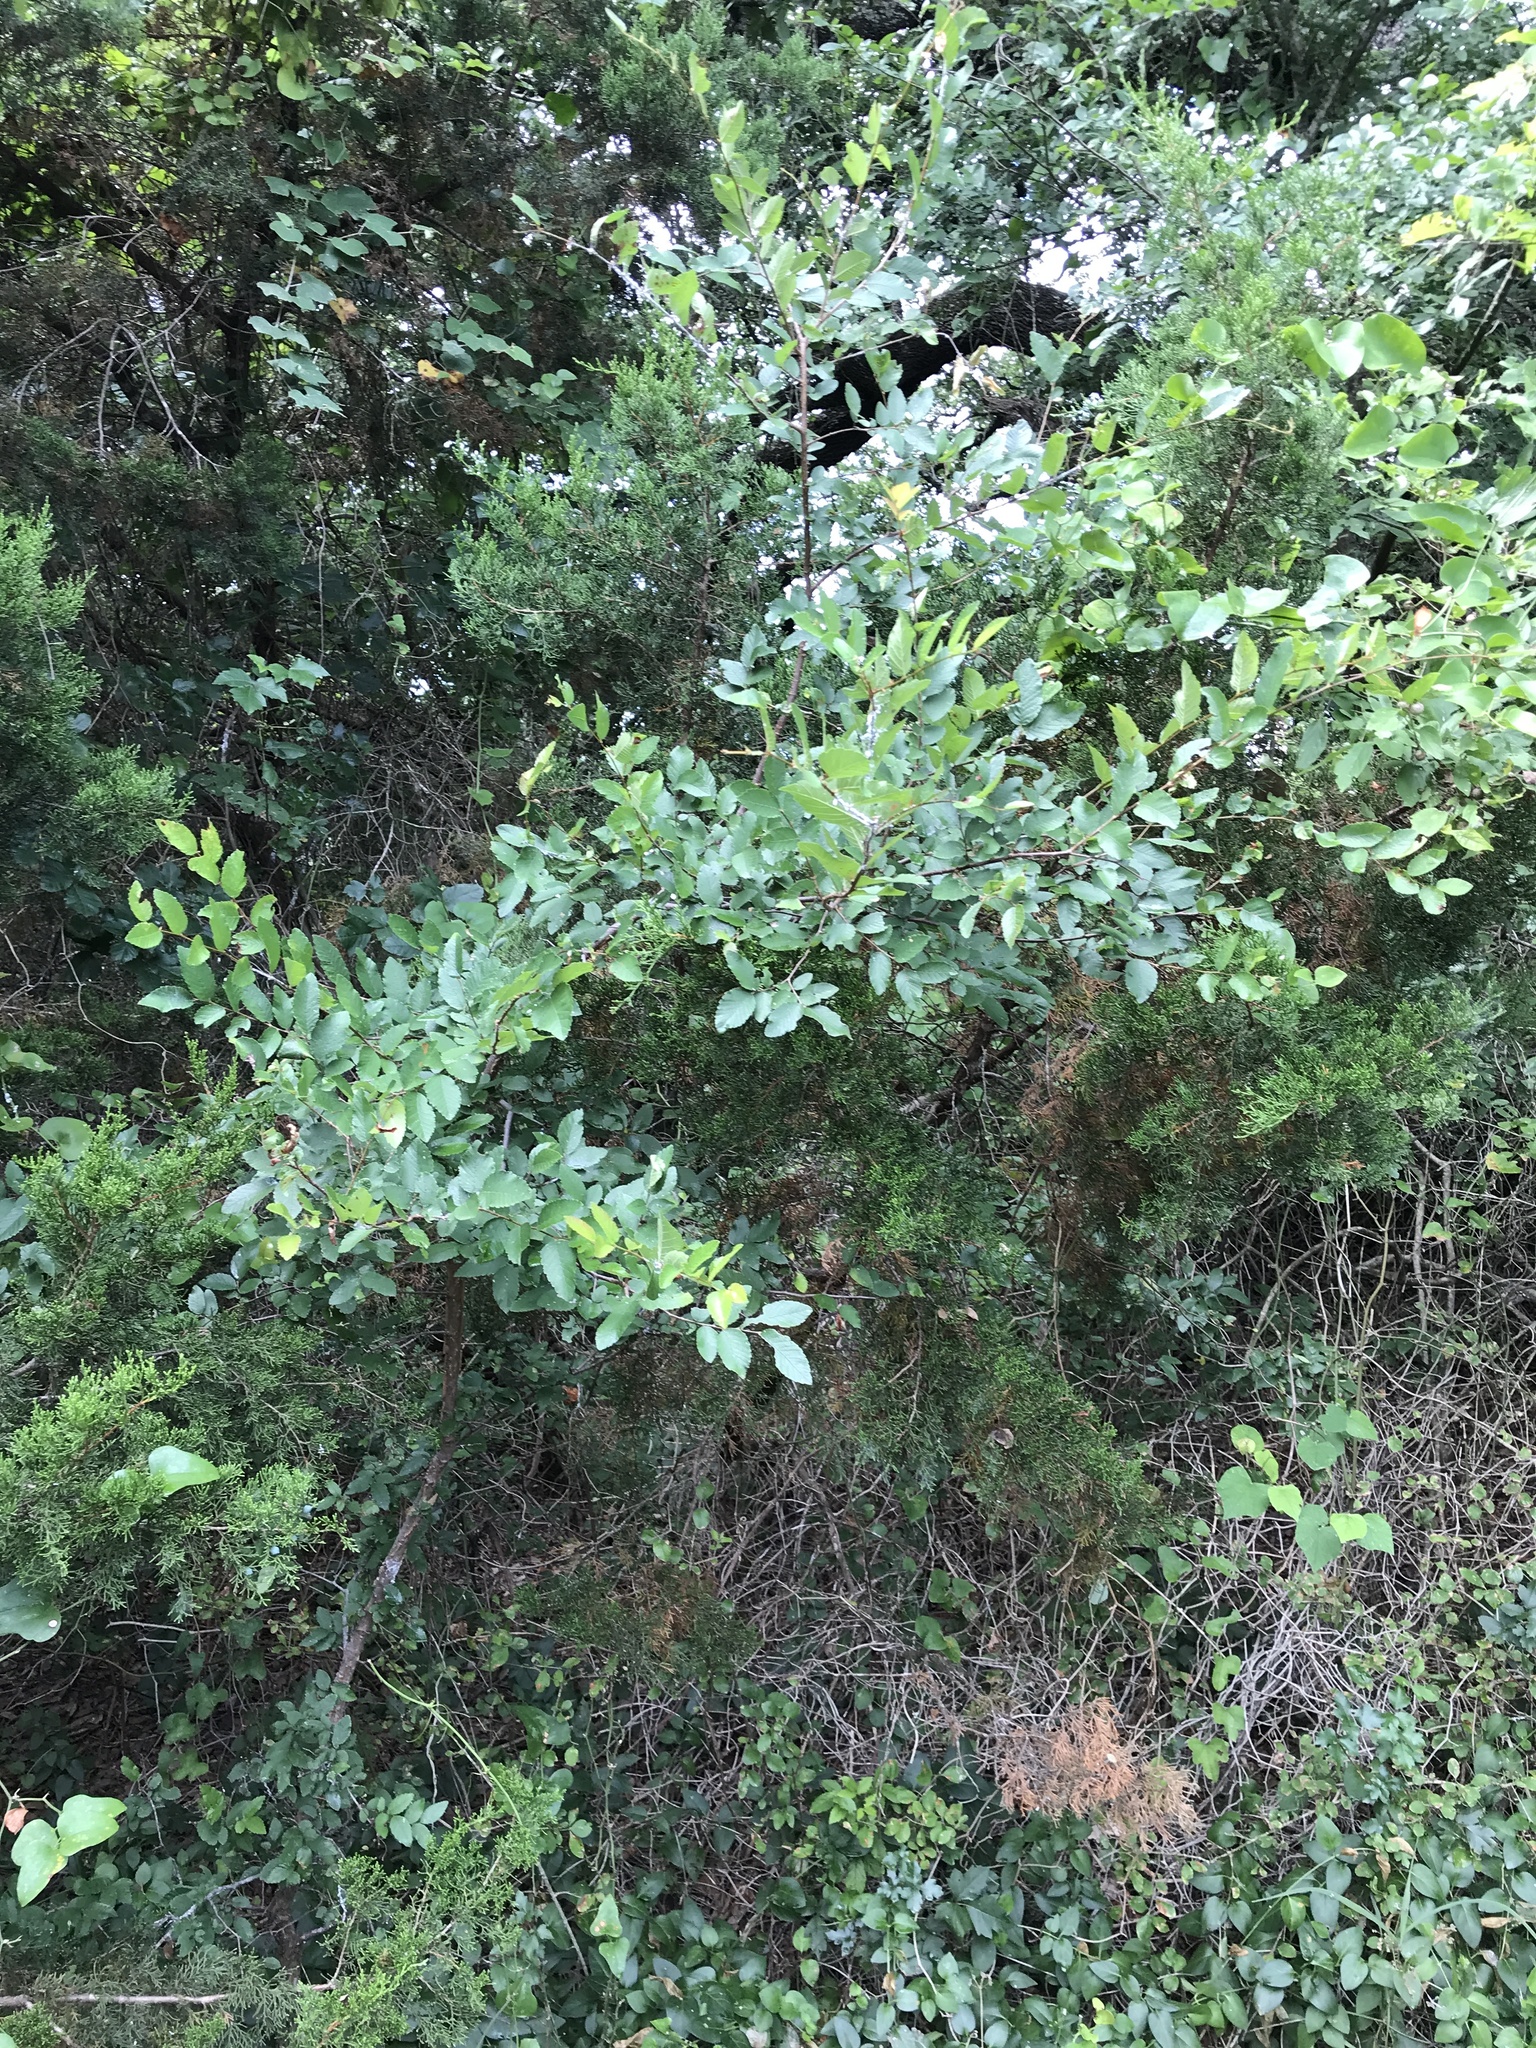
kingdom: Plantae
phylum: Tracheophyta
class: Magnoliopsida
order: Rosales
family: Ulmaceae
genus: Ulmus
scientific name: Ulmus crassifolia
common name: Basket elm
